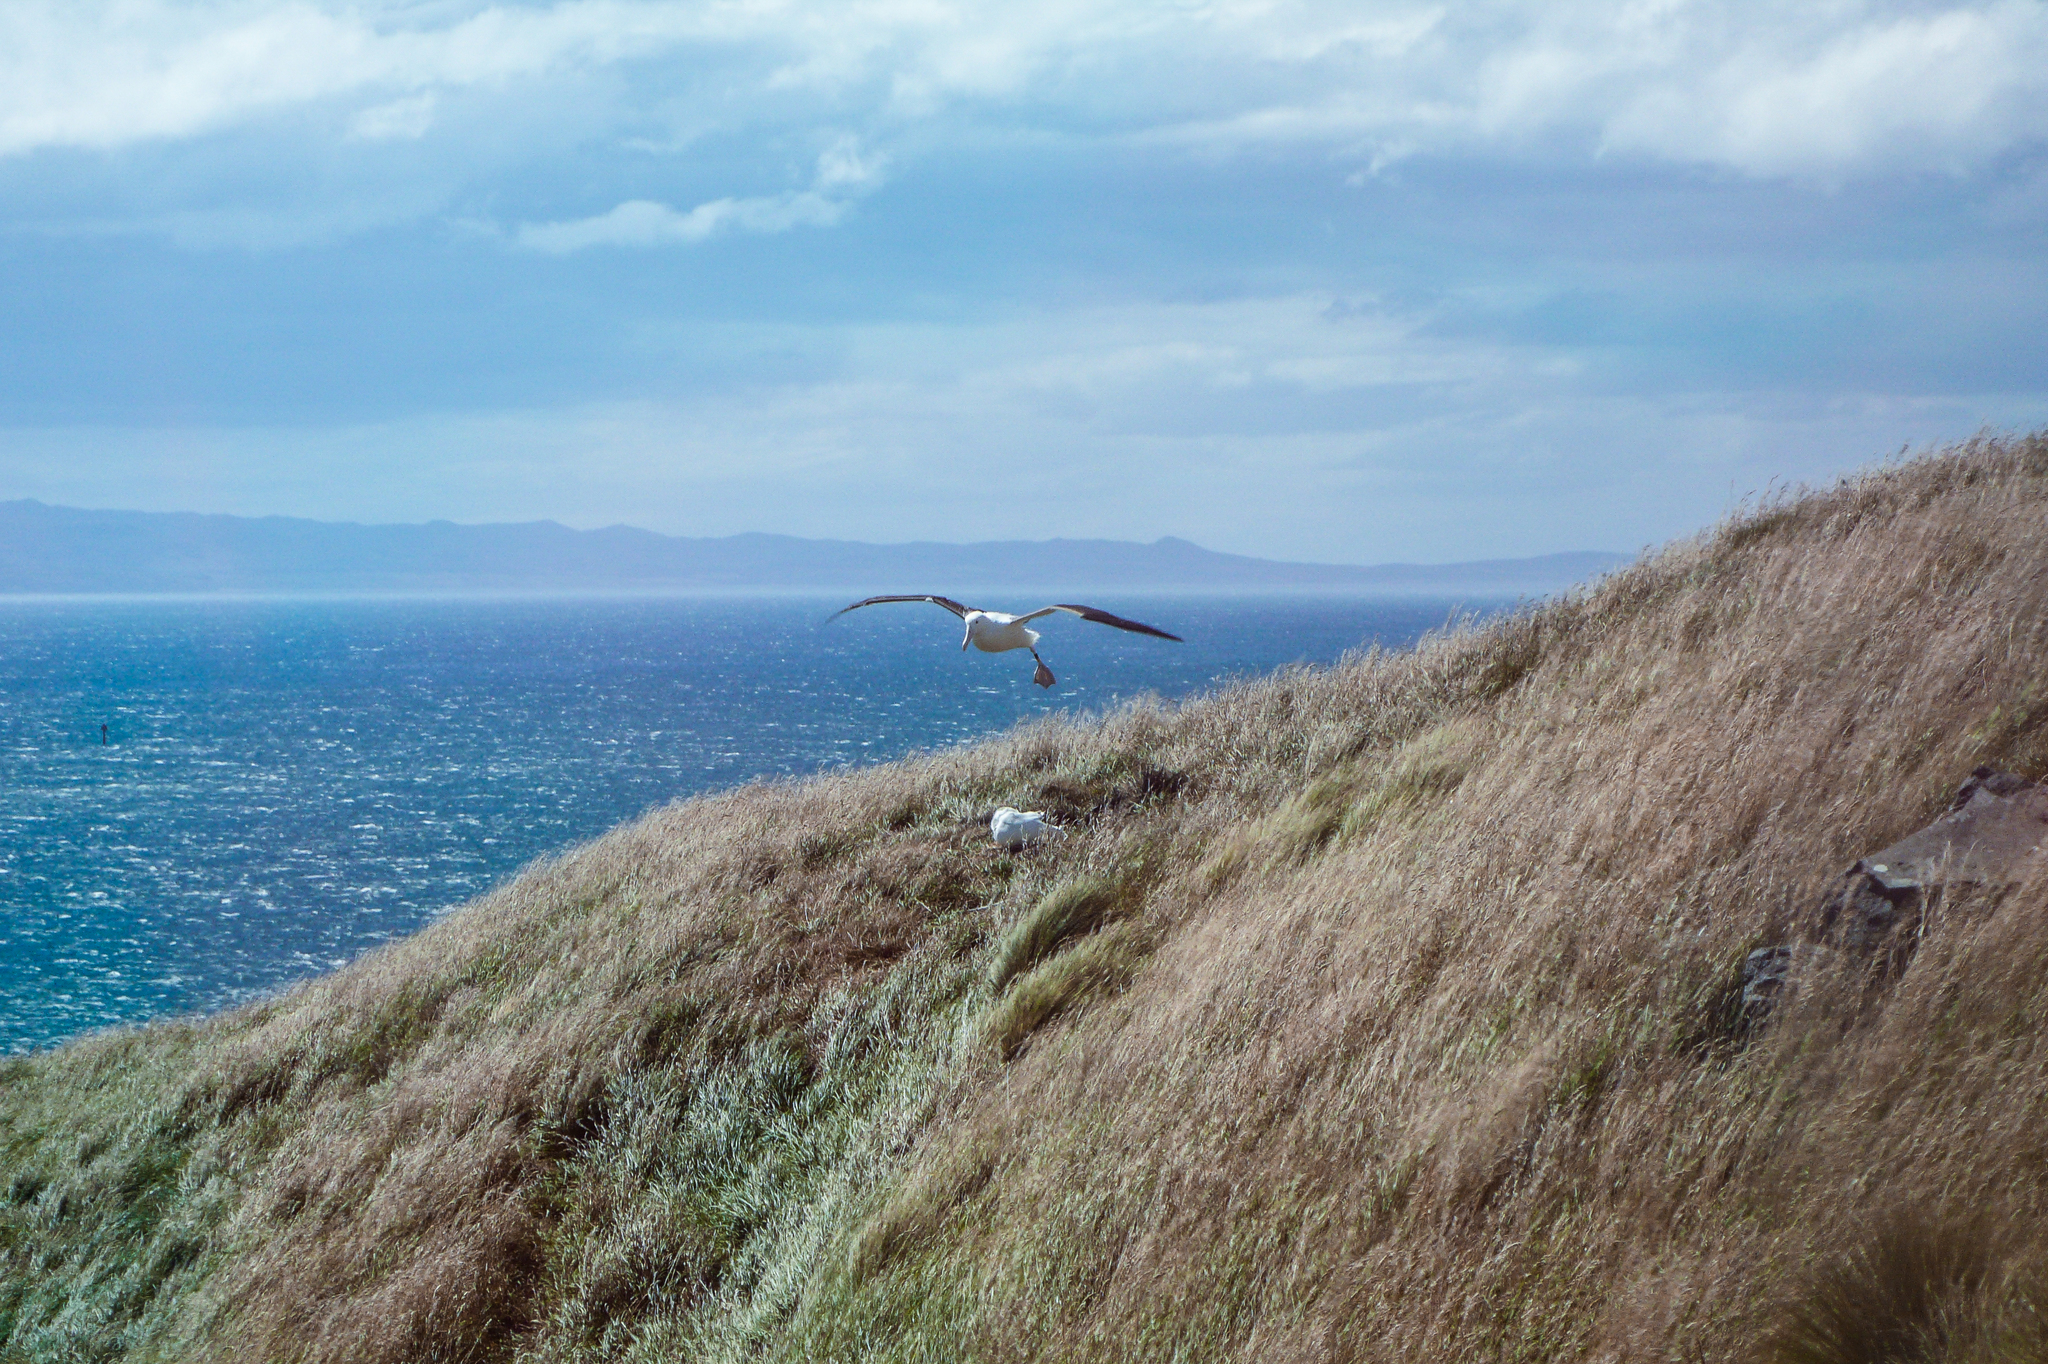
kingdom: Animalia
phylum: Chordata
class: Aves
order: Procellariiformes
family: Diomedeidae
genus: Diomedea
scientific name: Diomedea sanfordi
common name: Northern royal albatross
